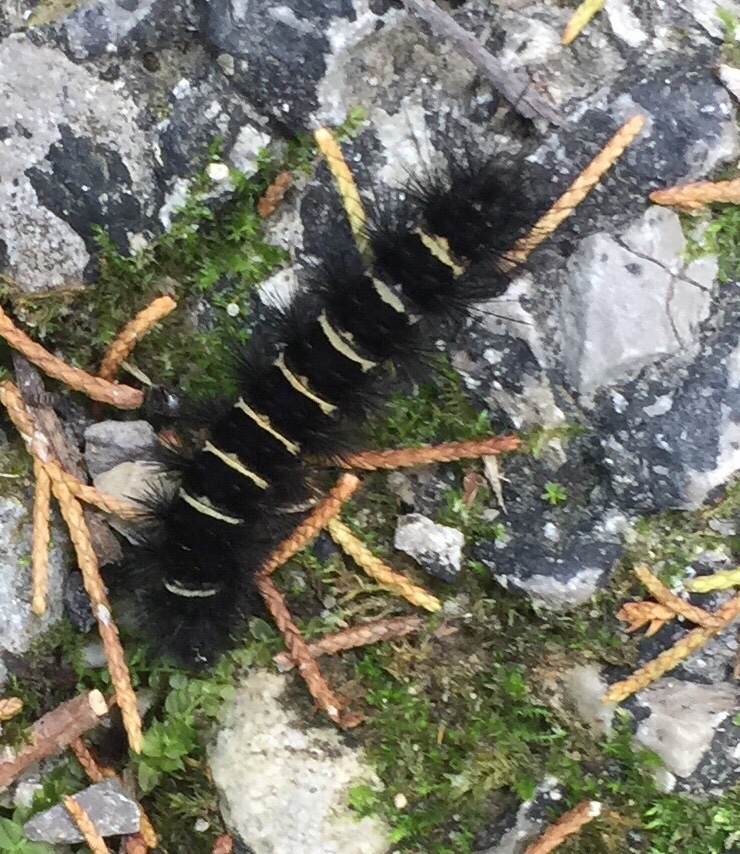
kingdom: Animalia
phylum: Arthropoda
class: Insecta
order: Lepidoptera
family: Erebidae
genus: Spilosoma
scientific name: Spilosoma congrua
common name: Agreeable tiger moth
